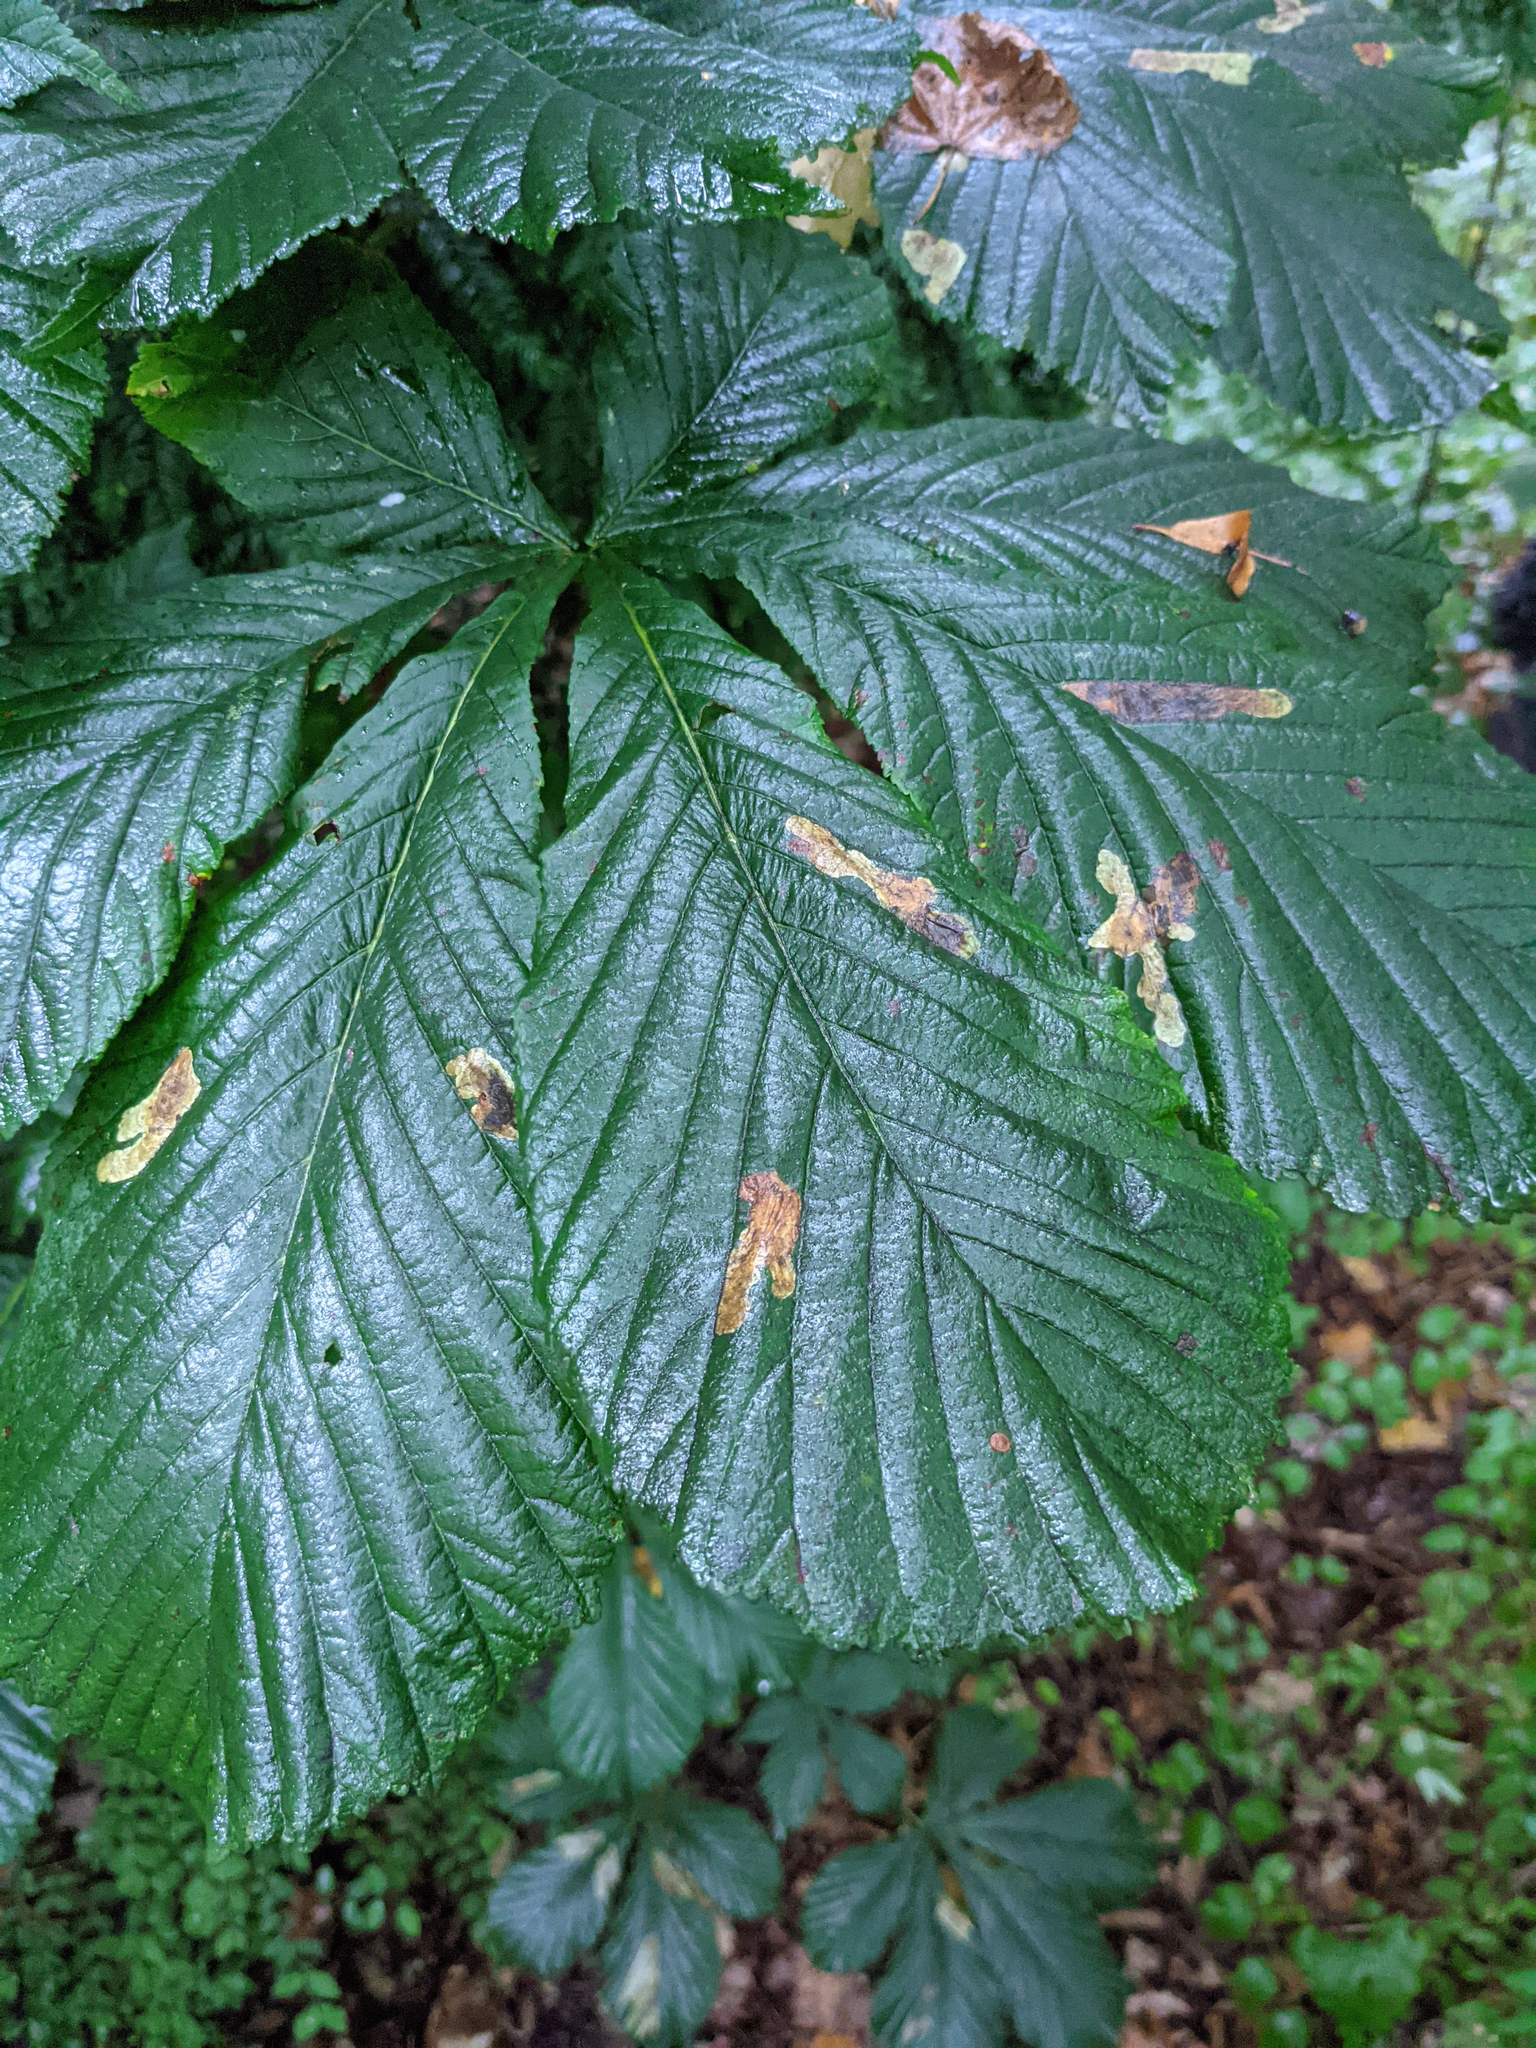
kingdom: Plantae
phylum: Tracheophyta
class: Magnoliopsida
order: Sapindales
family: Sapindaceae
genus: Aesculus
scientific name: Aesculus hippocastanum
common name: Horse-chestnut
